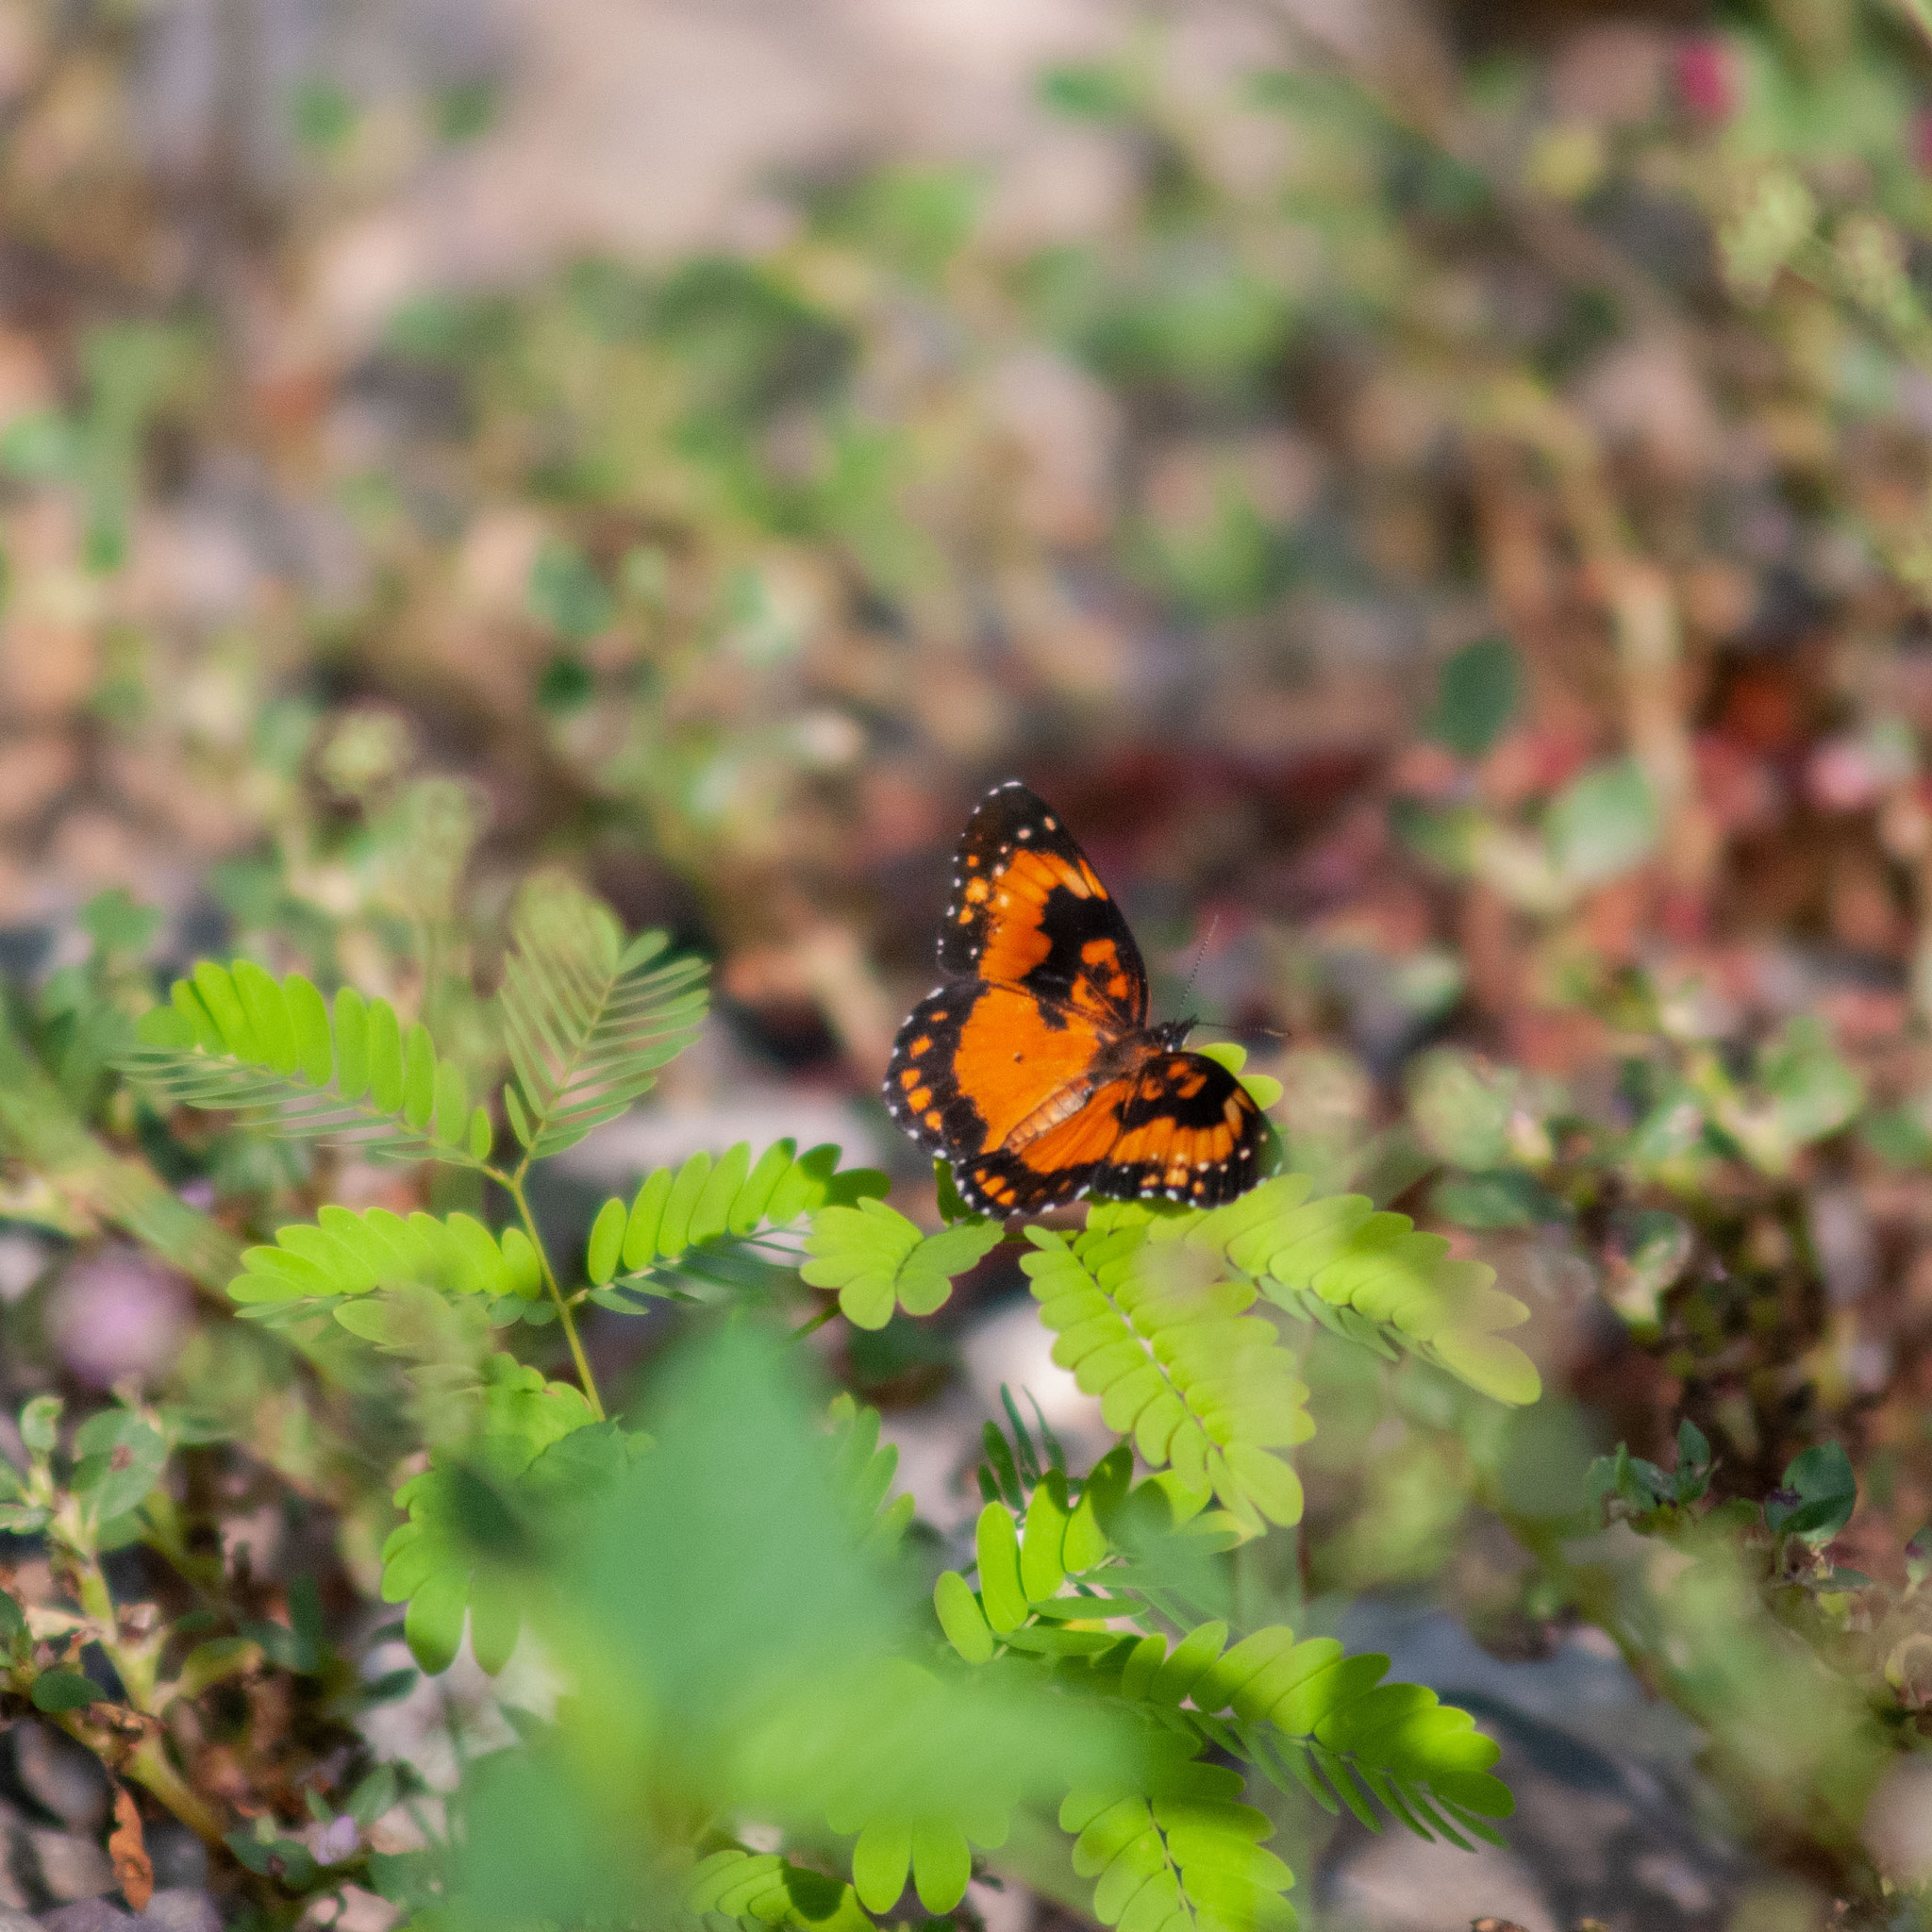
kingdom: Animalia
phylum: Arthropoda
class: Insecta
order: Lepidoptera
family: Nymphalidae
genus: Chlosyne
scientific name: Chlosyne lacinia
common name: Bordered patch
